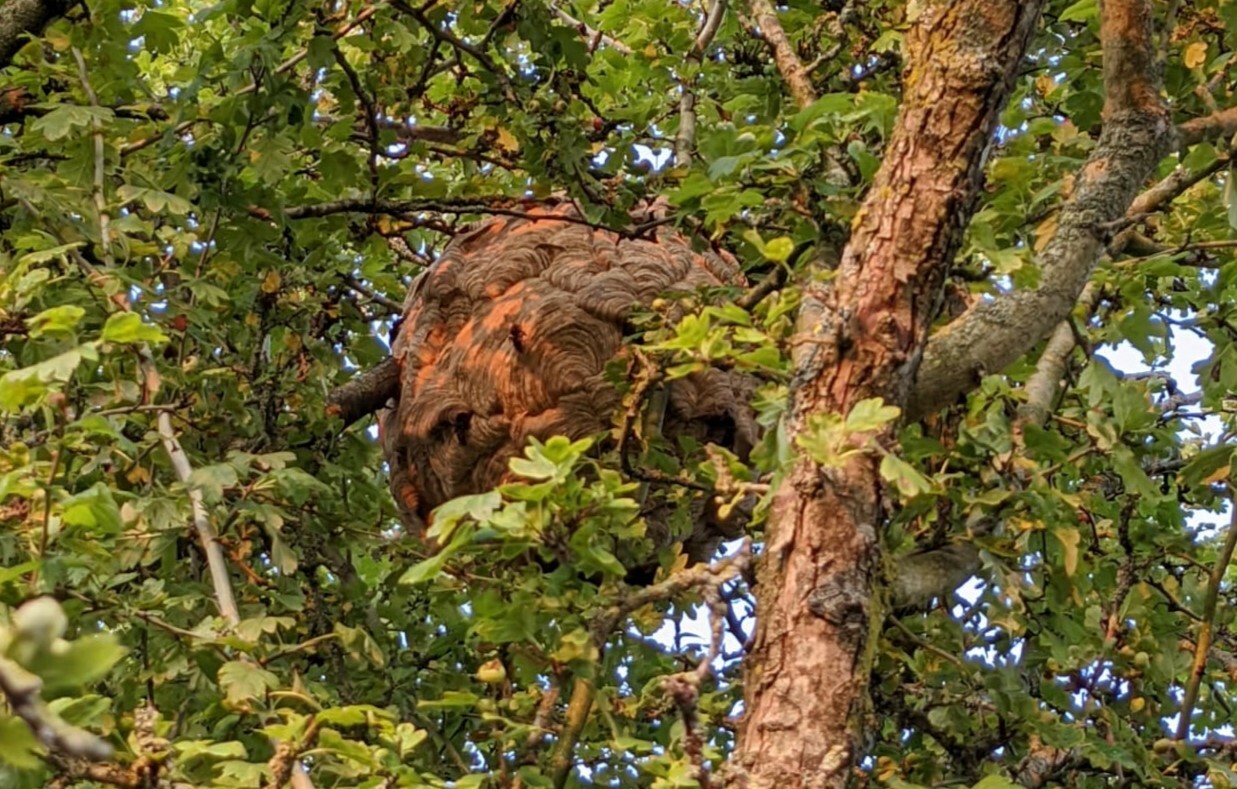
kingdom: Animalia
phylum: Arthropoda
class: Insecta
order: Hymenoptera
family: Vespidae
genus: Vespa
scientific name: Vespa velutina
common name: Asian hornet
